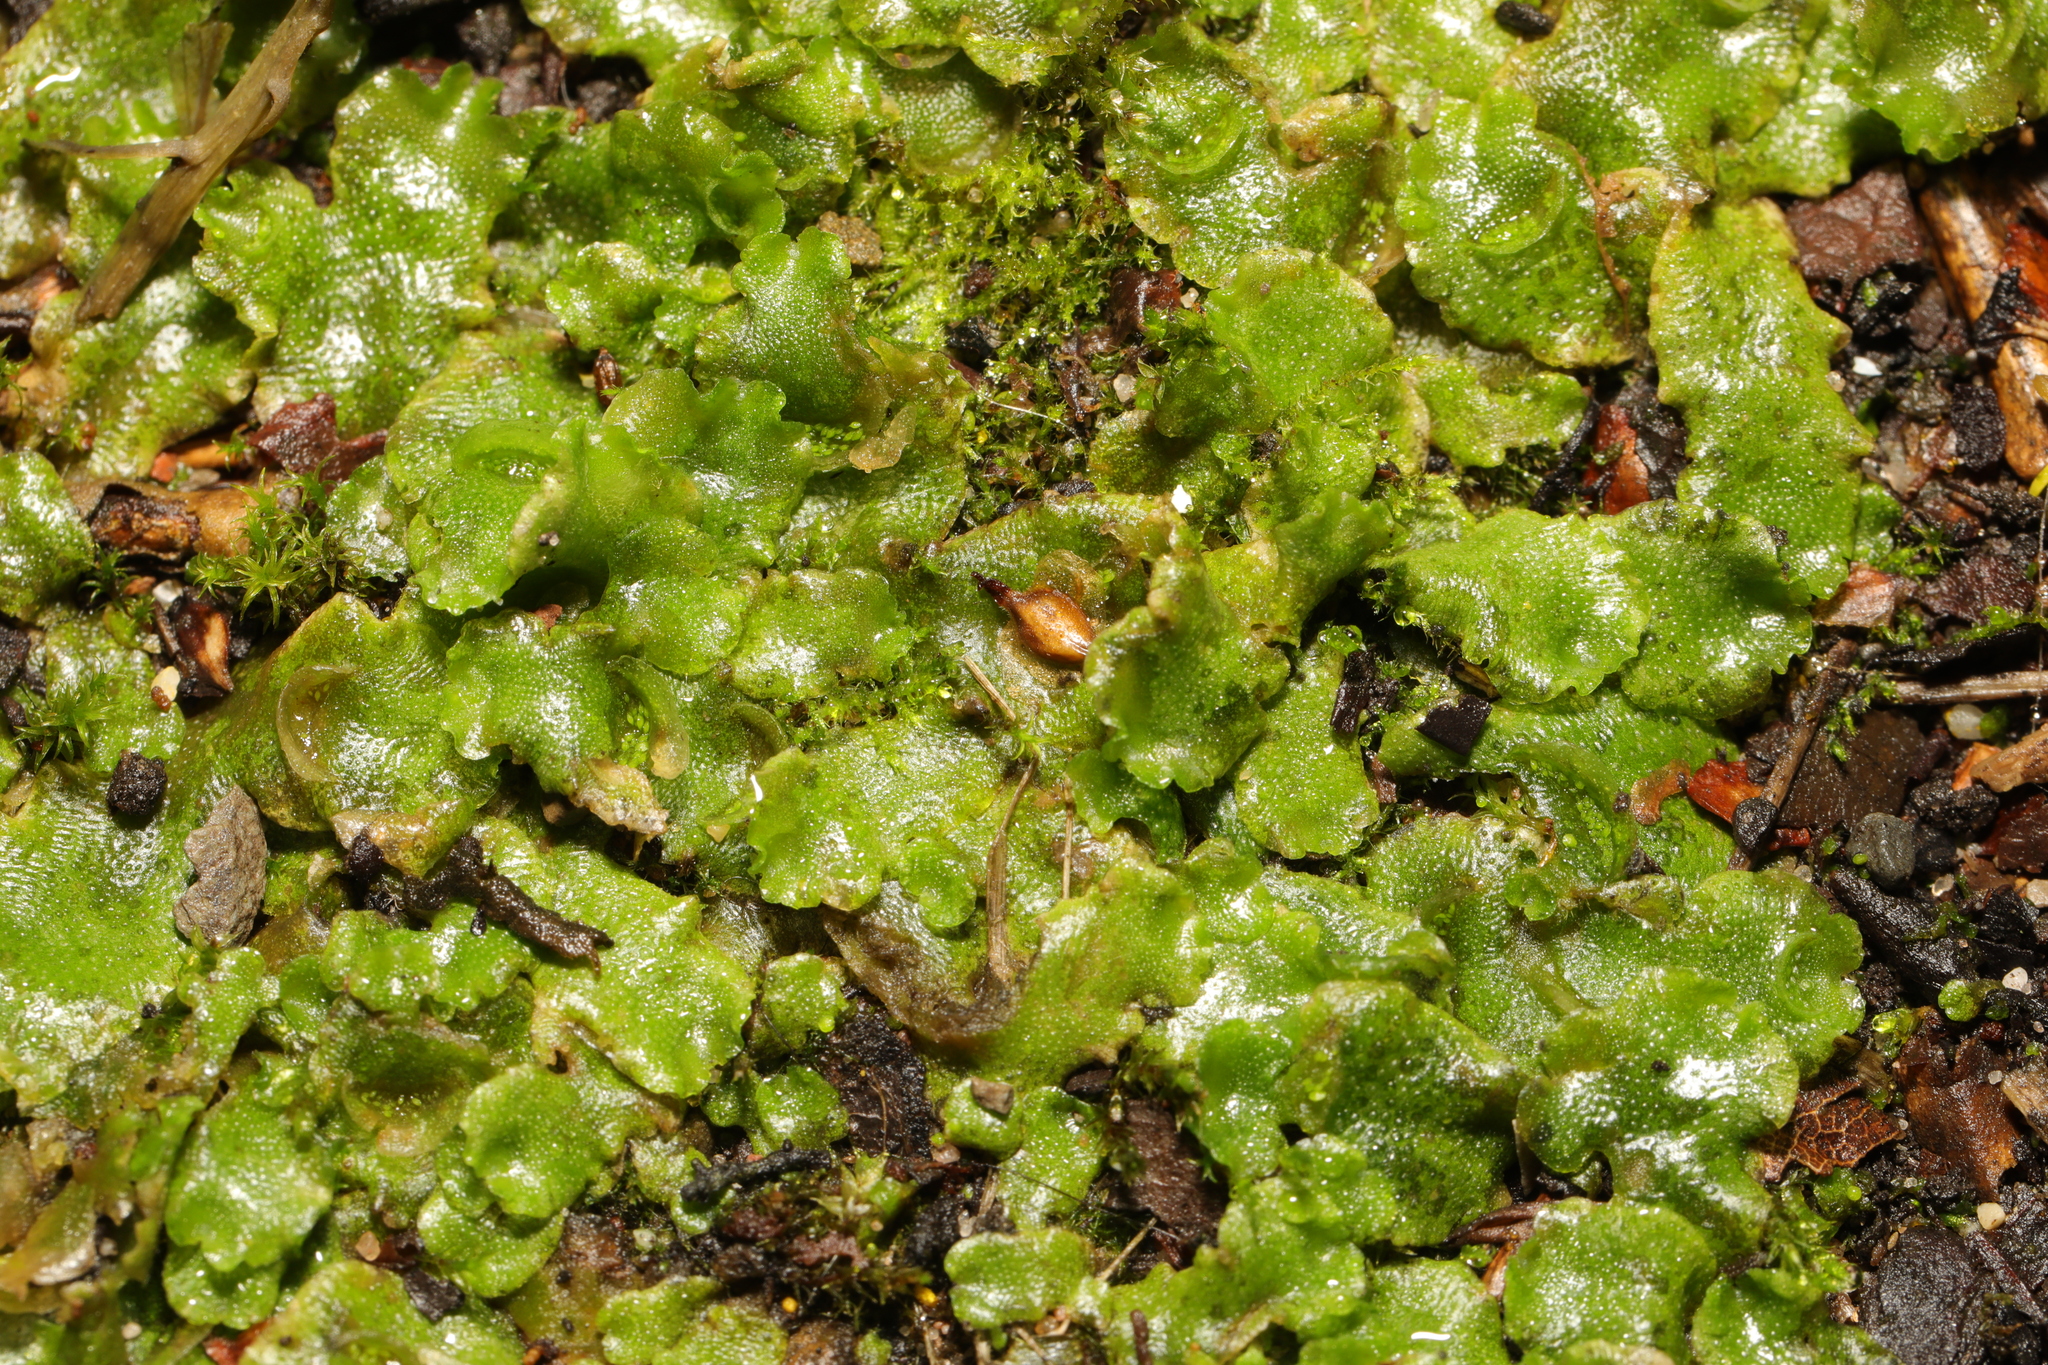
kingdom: Plantae
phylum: Marchantiophyta
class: Marchantiopsida
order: Lunulariales
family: Lunulariaceae
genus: Lunularia
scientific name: Lunularia cruciata
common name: Crescent-cup liverwort
